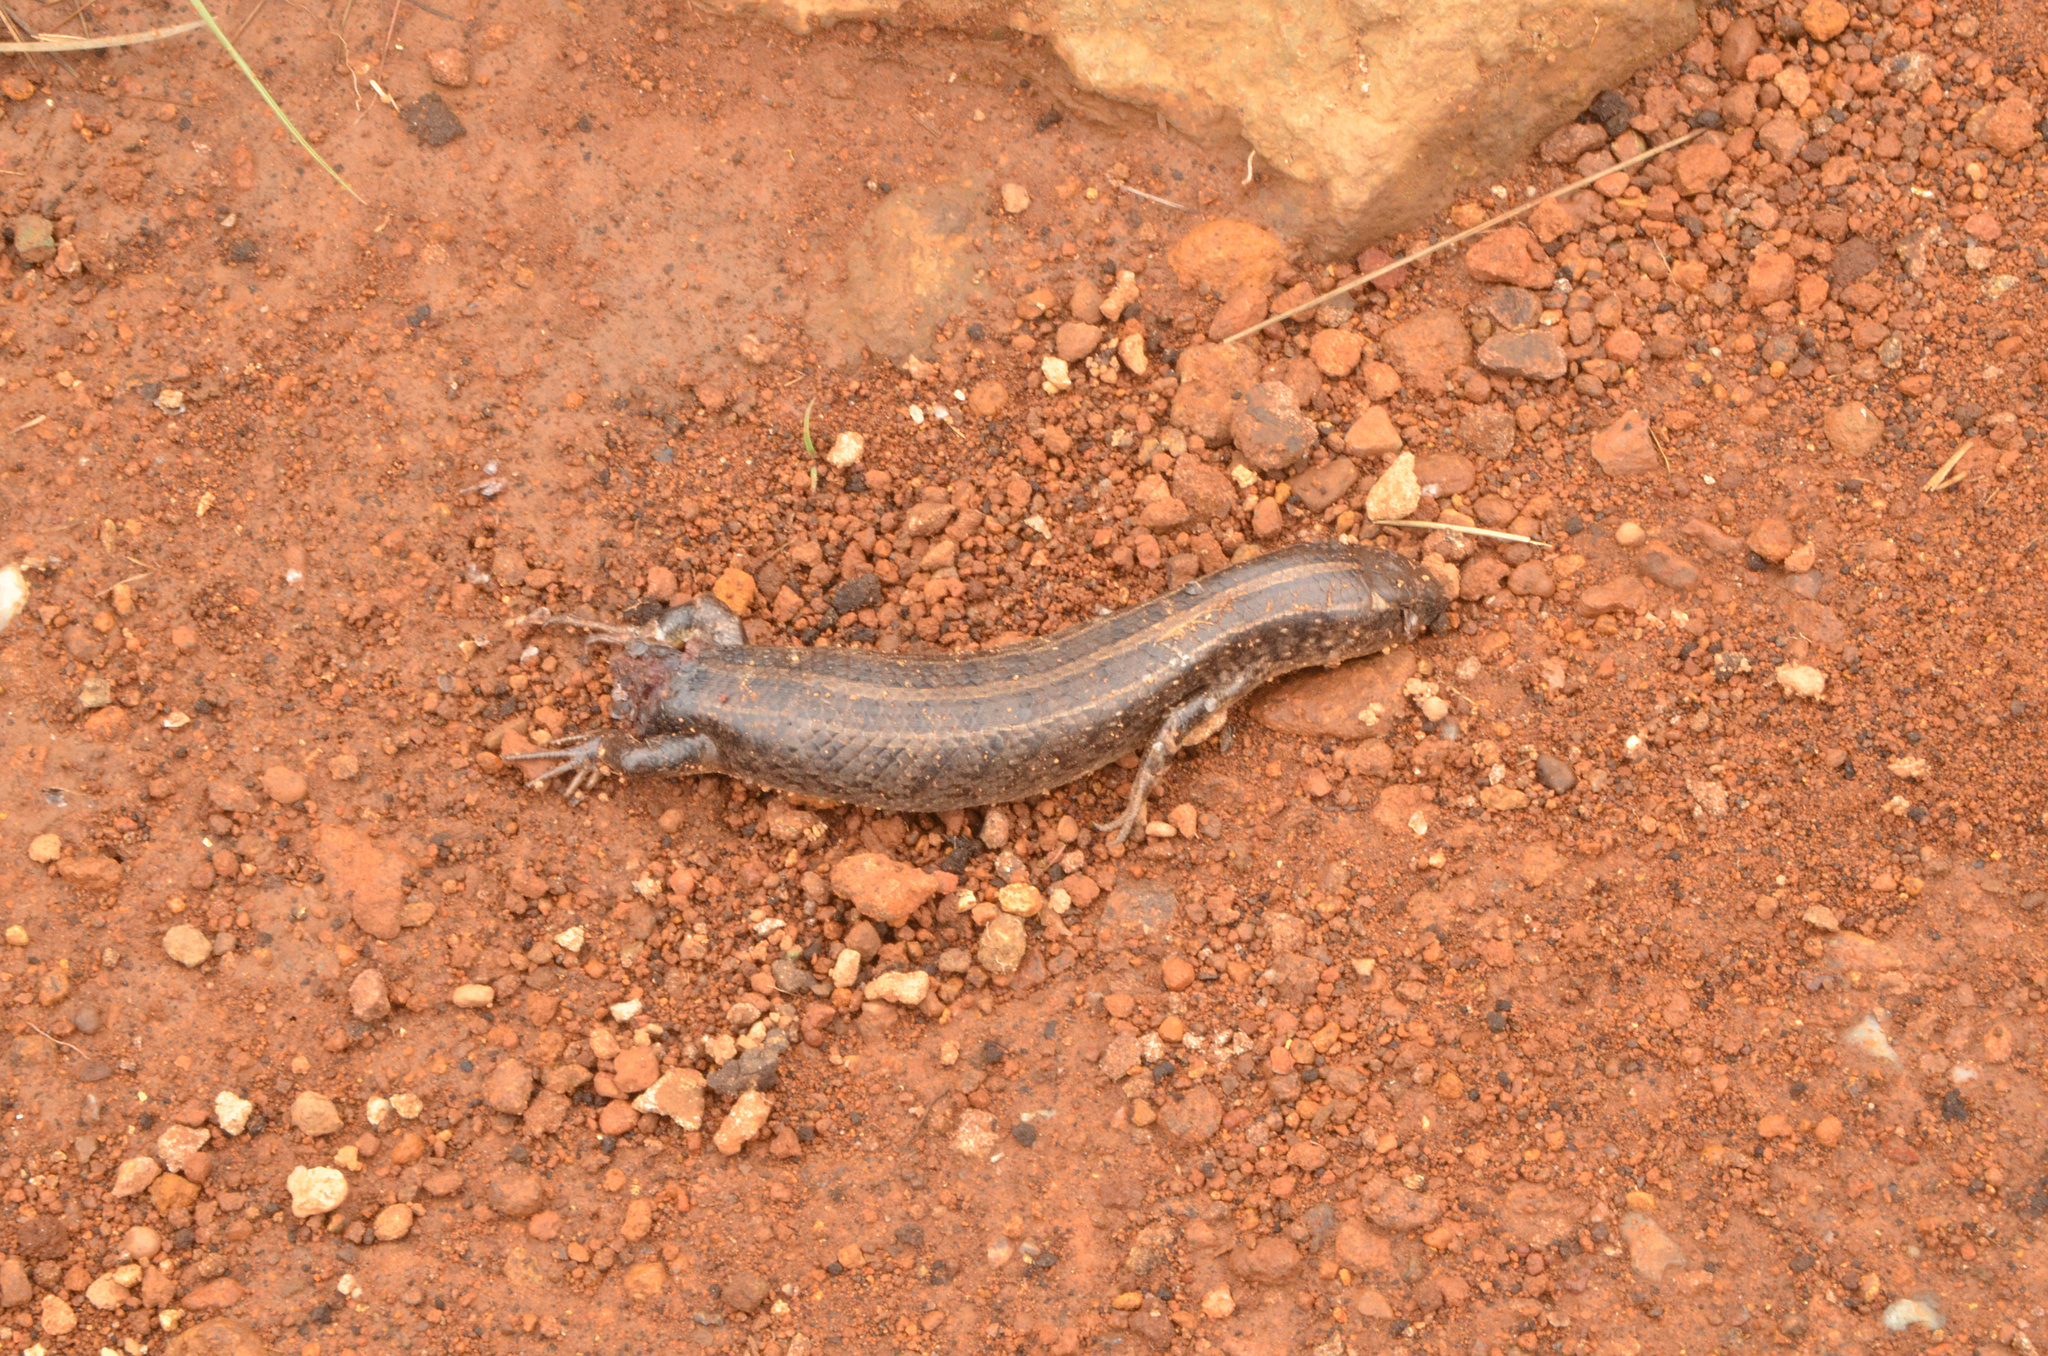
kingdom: Animalia
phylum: Chordata
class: Squamata
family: Scincidae
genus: Trachylepis
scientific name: Trachylepis capensis
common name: Cape skink
